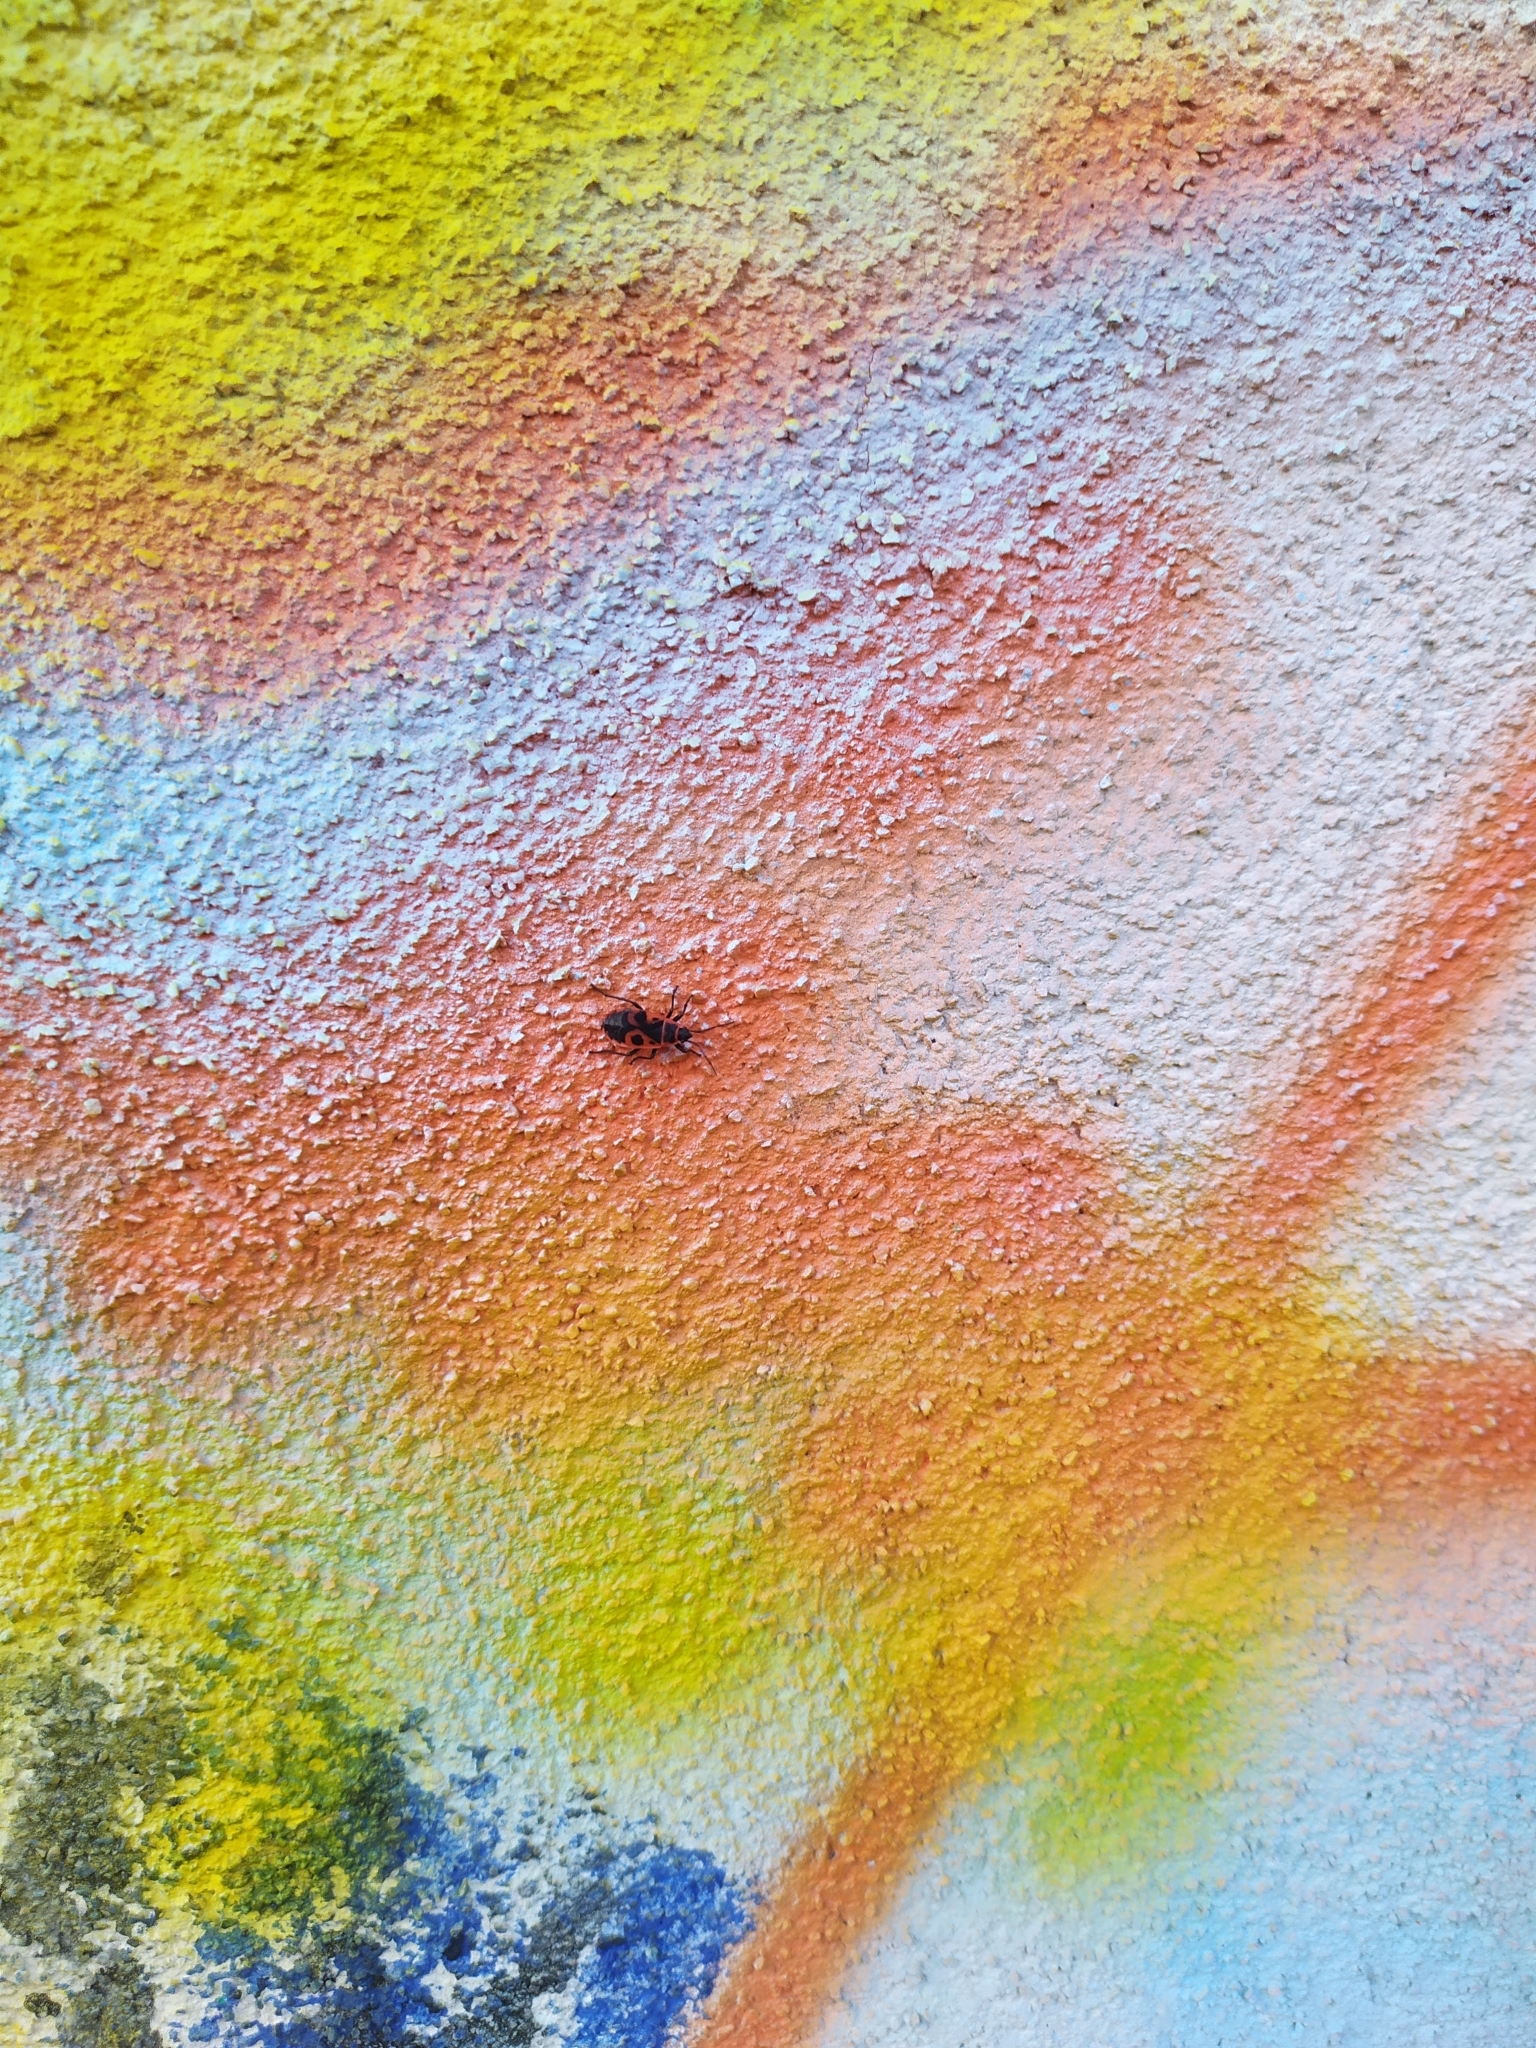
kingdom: Animalia
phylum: Arthropoda
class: Insecta
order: Hemiptera
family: Pyrrhocoridae
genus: Pyrrhocoris
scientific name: Pyrrhocoris apterus
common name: Firebug
